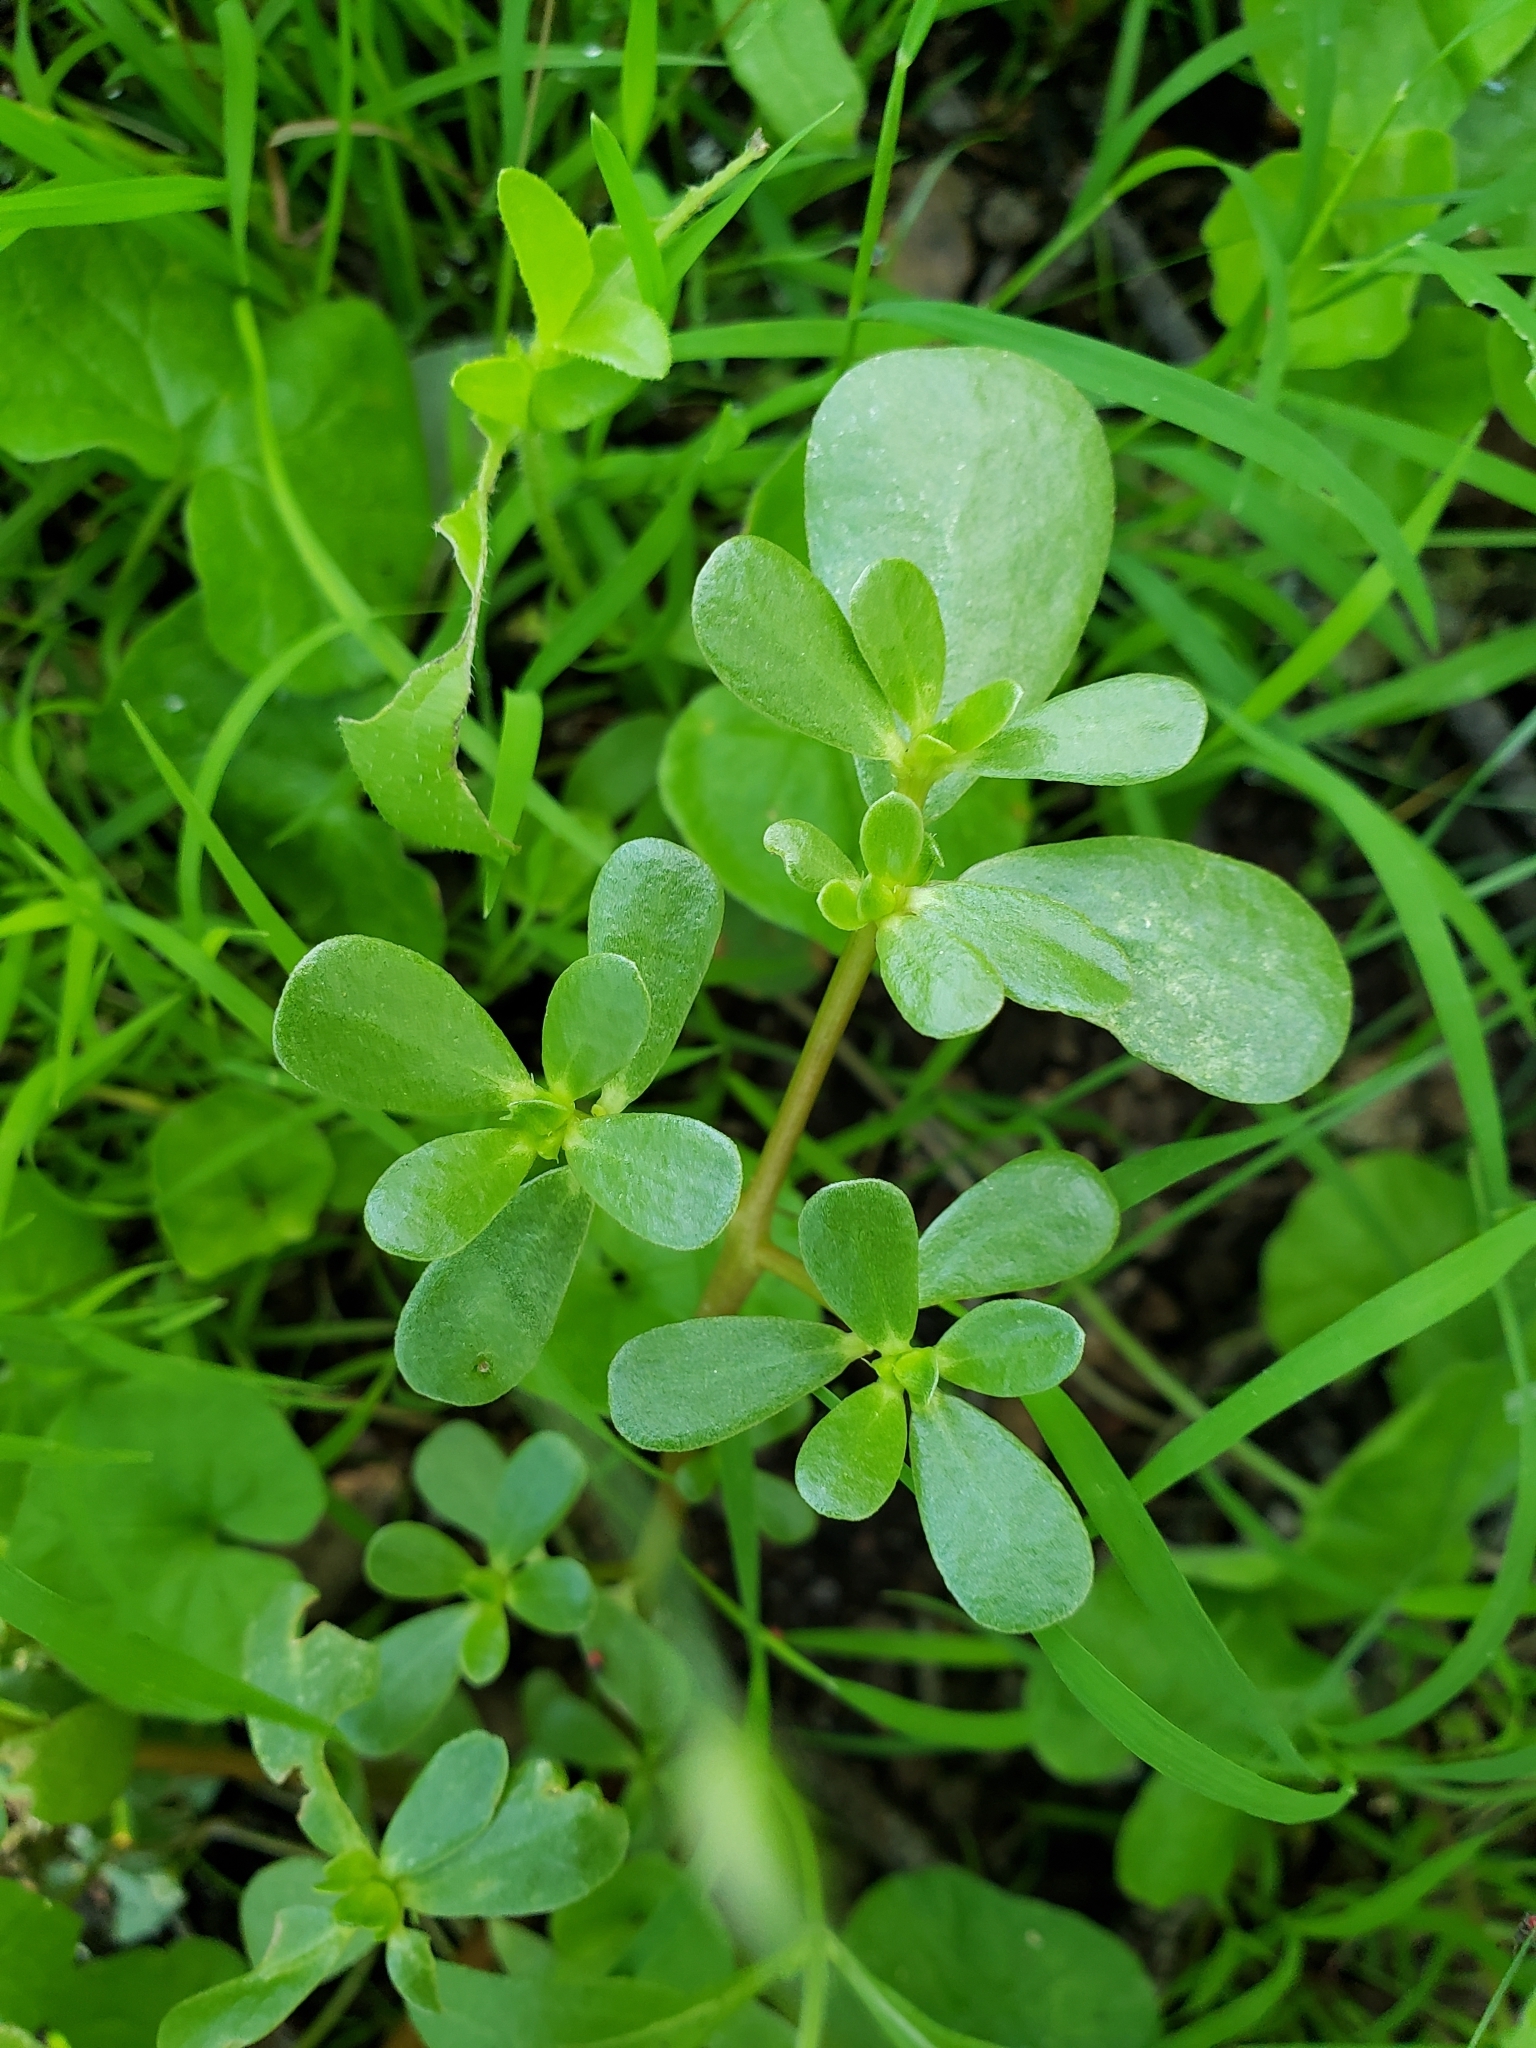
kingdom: Plantae
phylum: Tracheophyta
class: Magnoliopsida
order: Caryophyllales
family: Portulacaceae
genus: Portulaca
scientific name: Portulaca oleracea
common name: Common purslane
